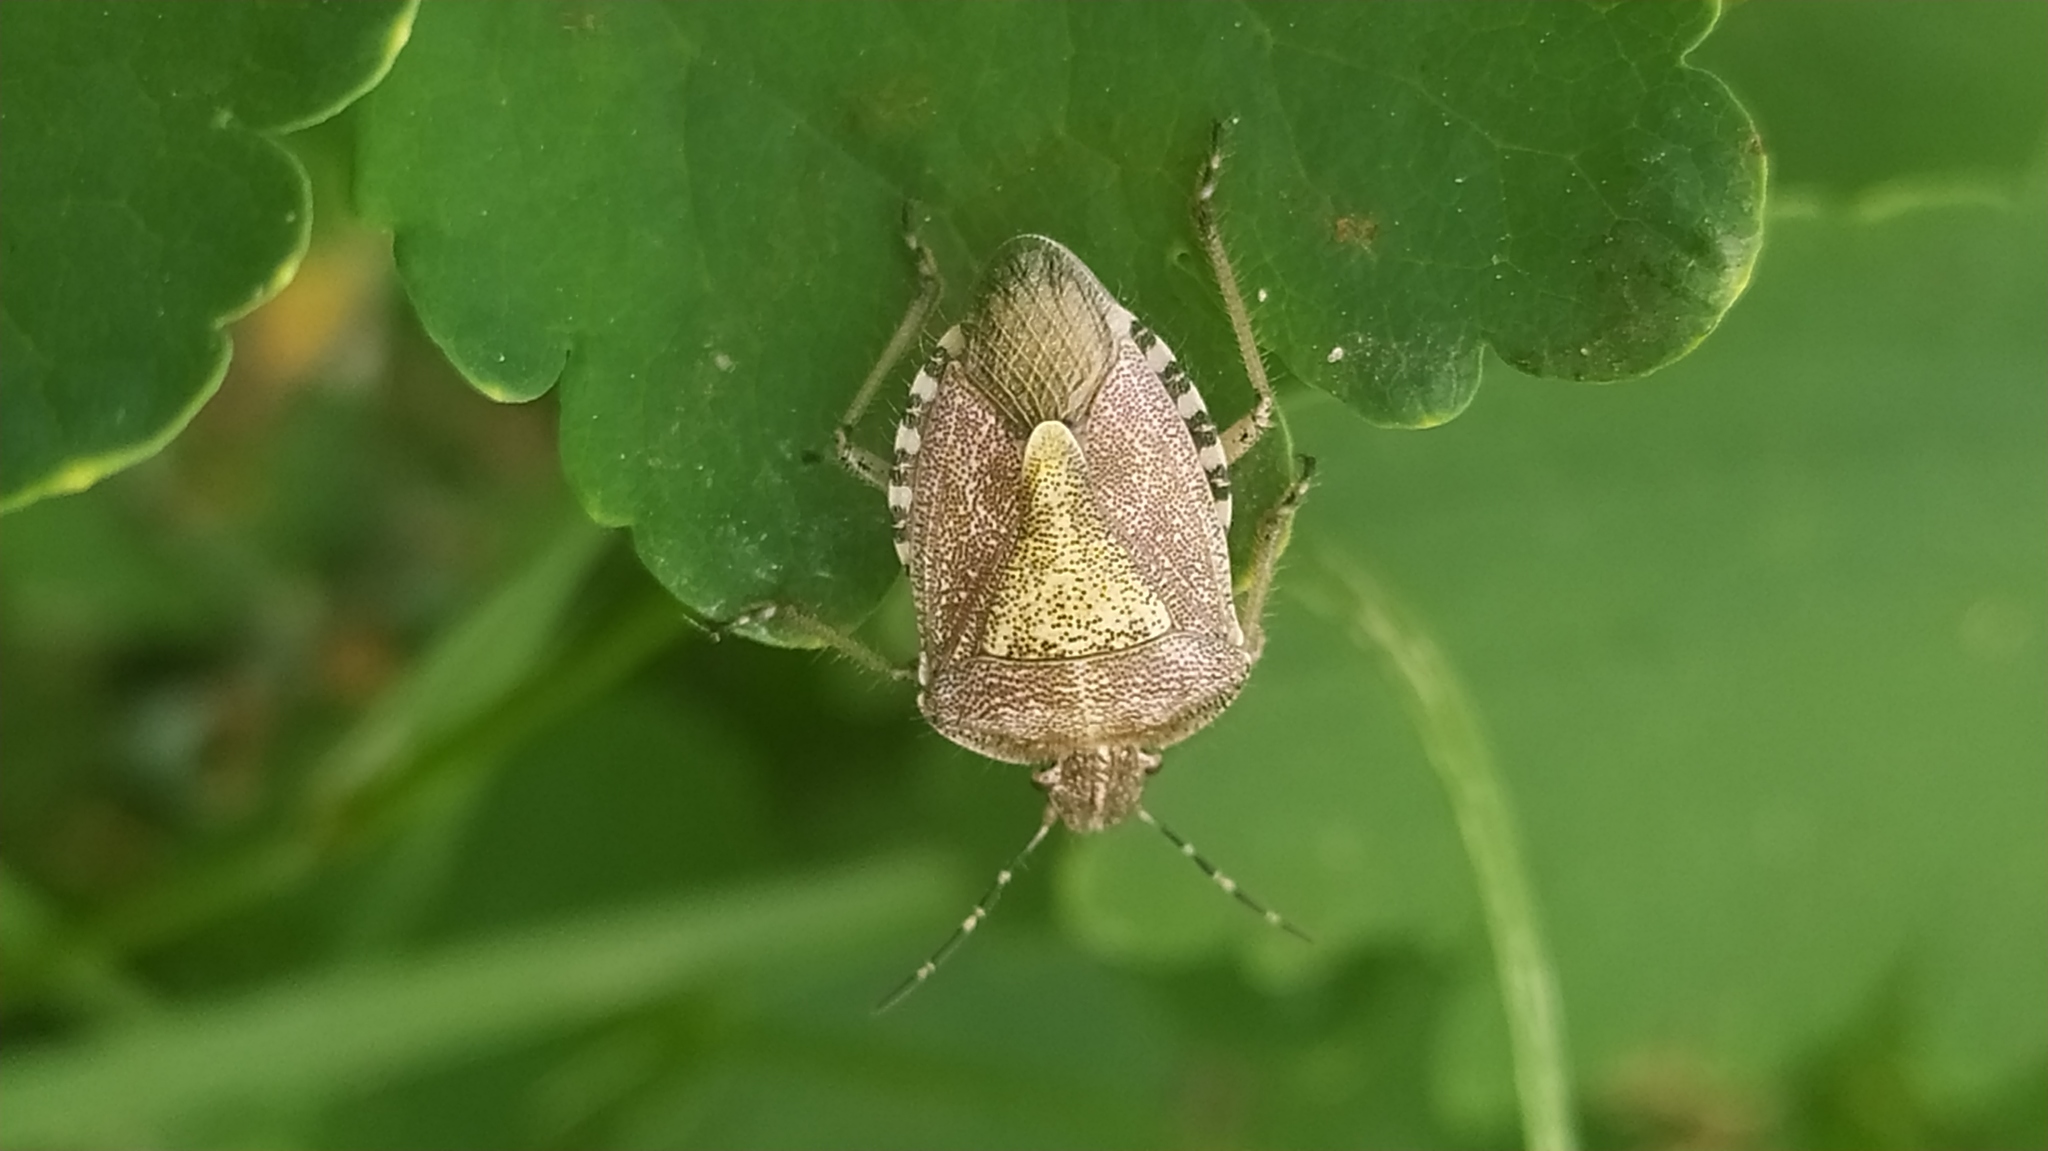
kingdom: Animalia
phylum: Arthropoda
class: Insecta
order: Hemiptera
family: Pentatomidae
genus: Dolycoris
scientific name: Dolycoris baccarum
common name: Sloe bug
